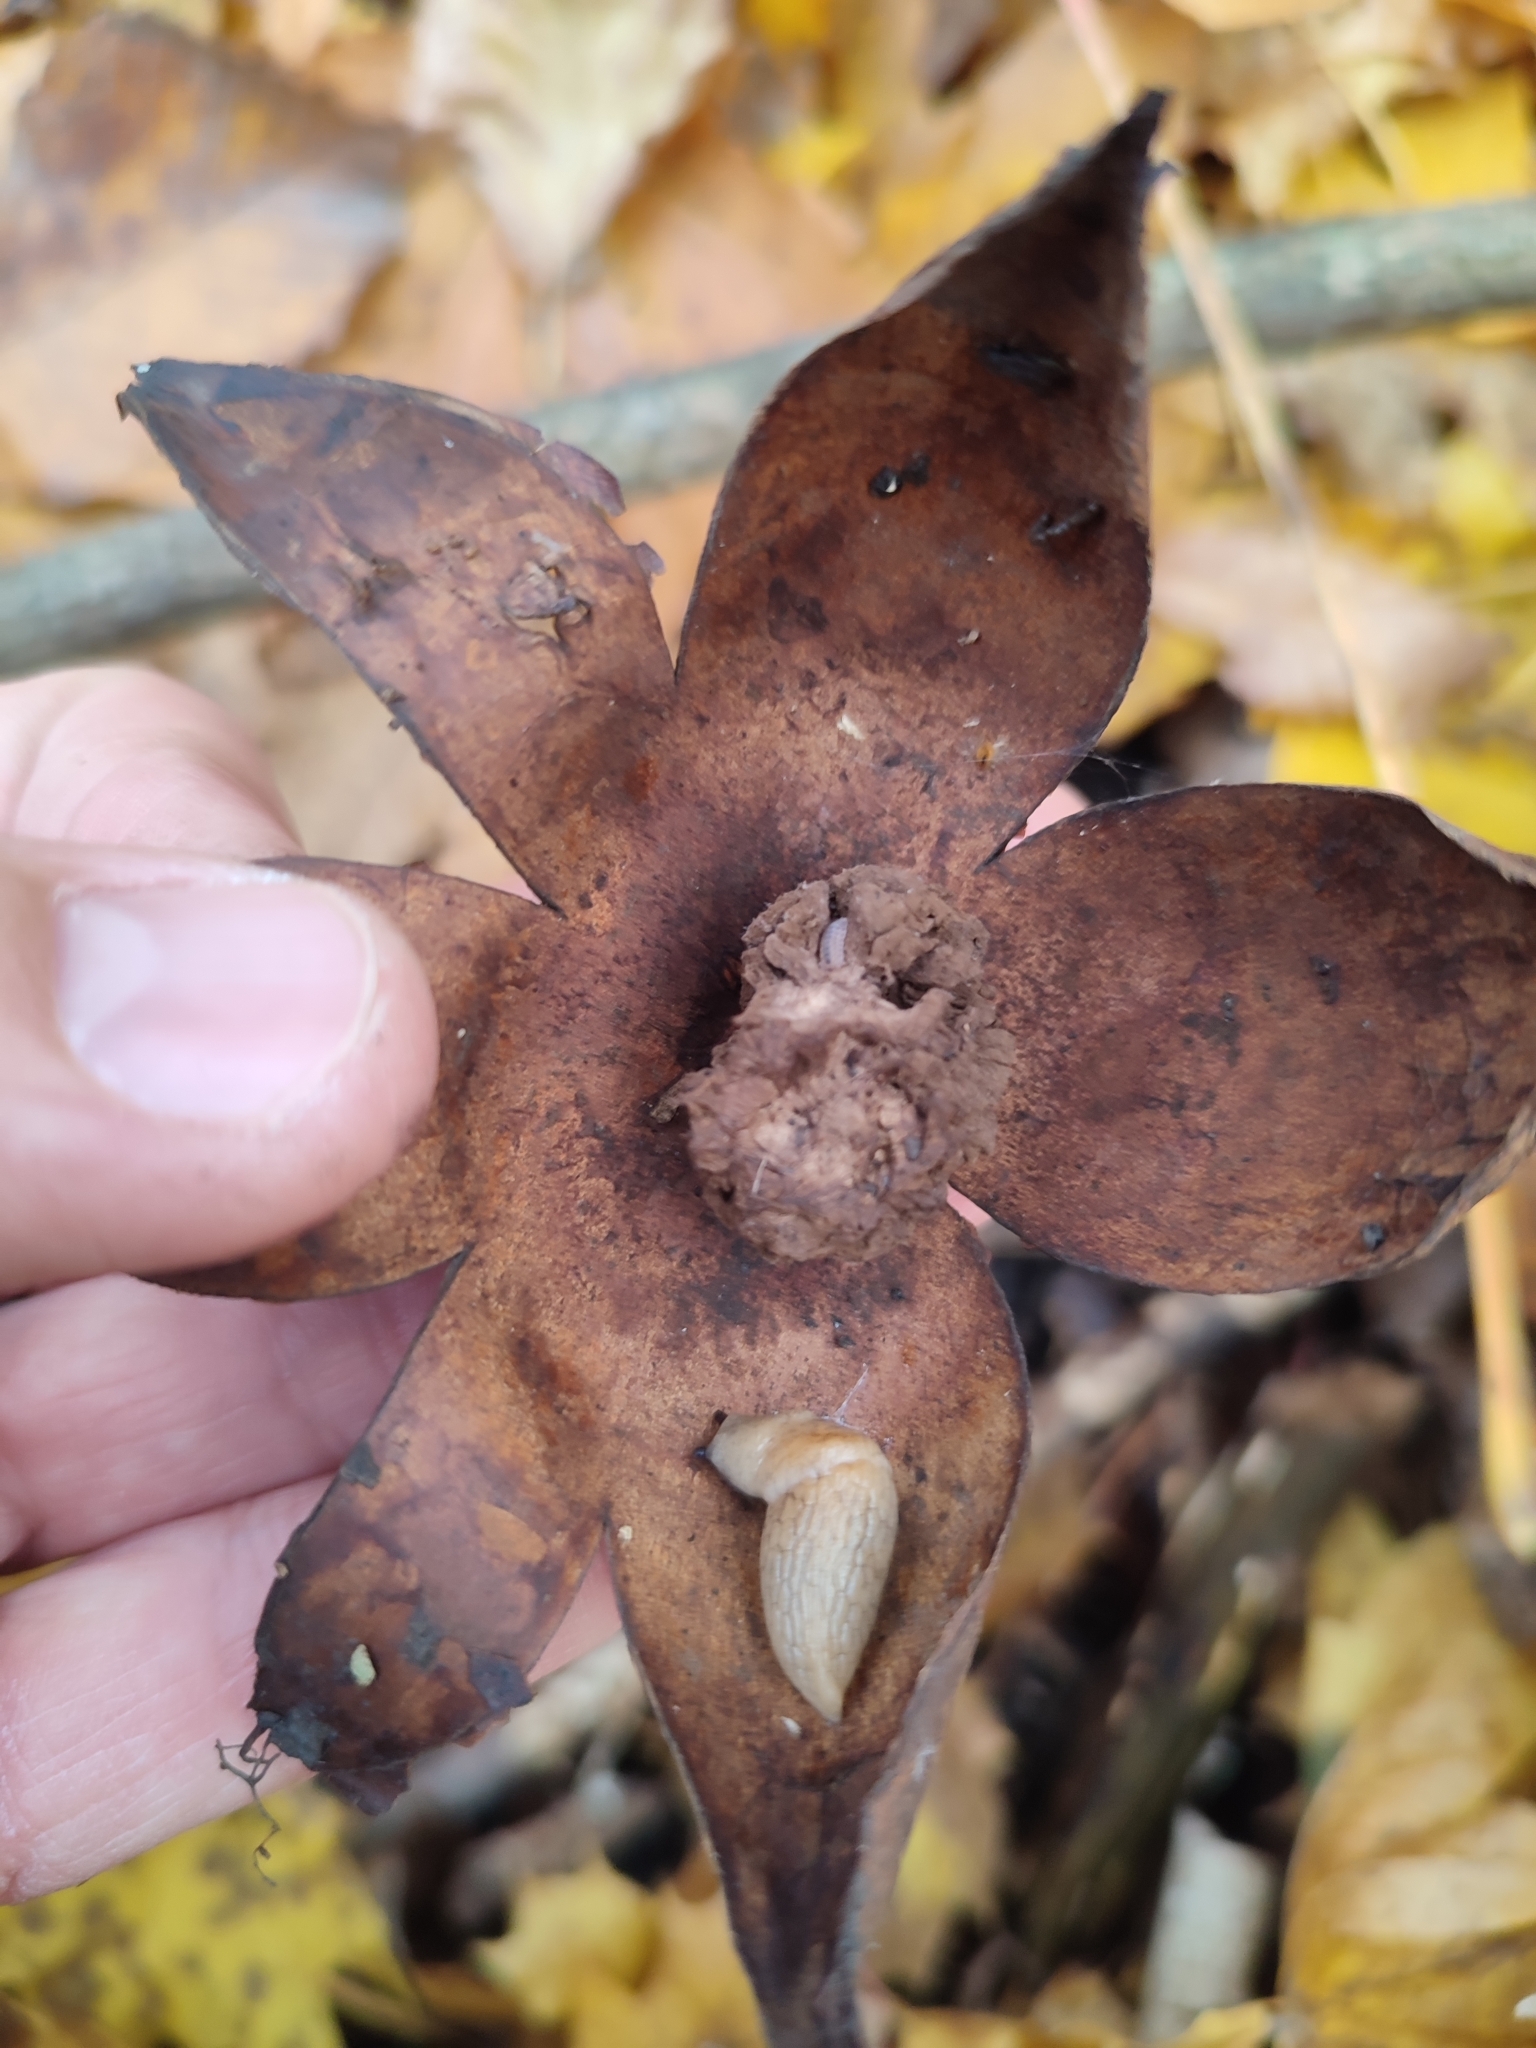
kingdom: Fungi
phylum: Basidiomycota
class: Agaricomycetes
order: Boletales
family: Diplocystidiaceae
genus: Astraeus
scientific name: Astraeus hygrometricus
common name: Barometer earthstar
